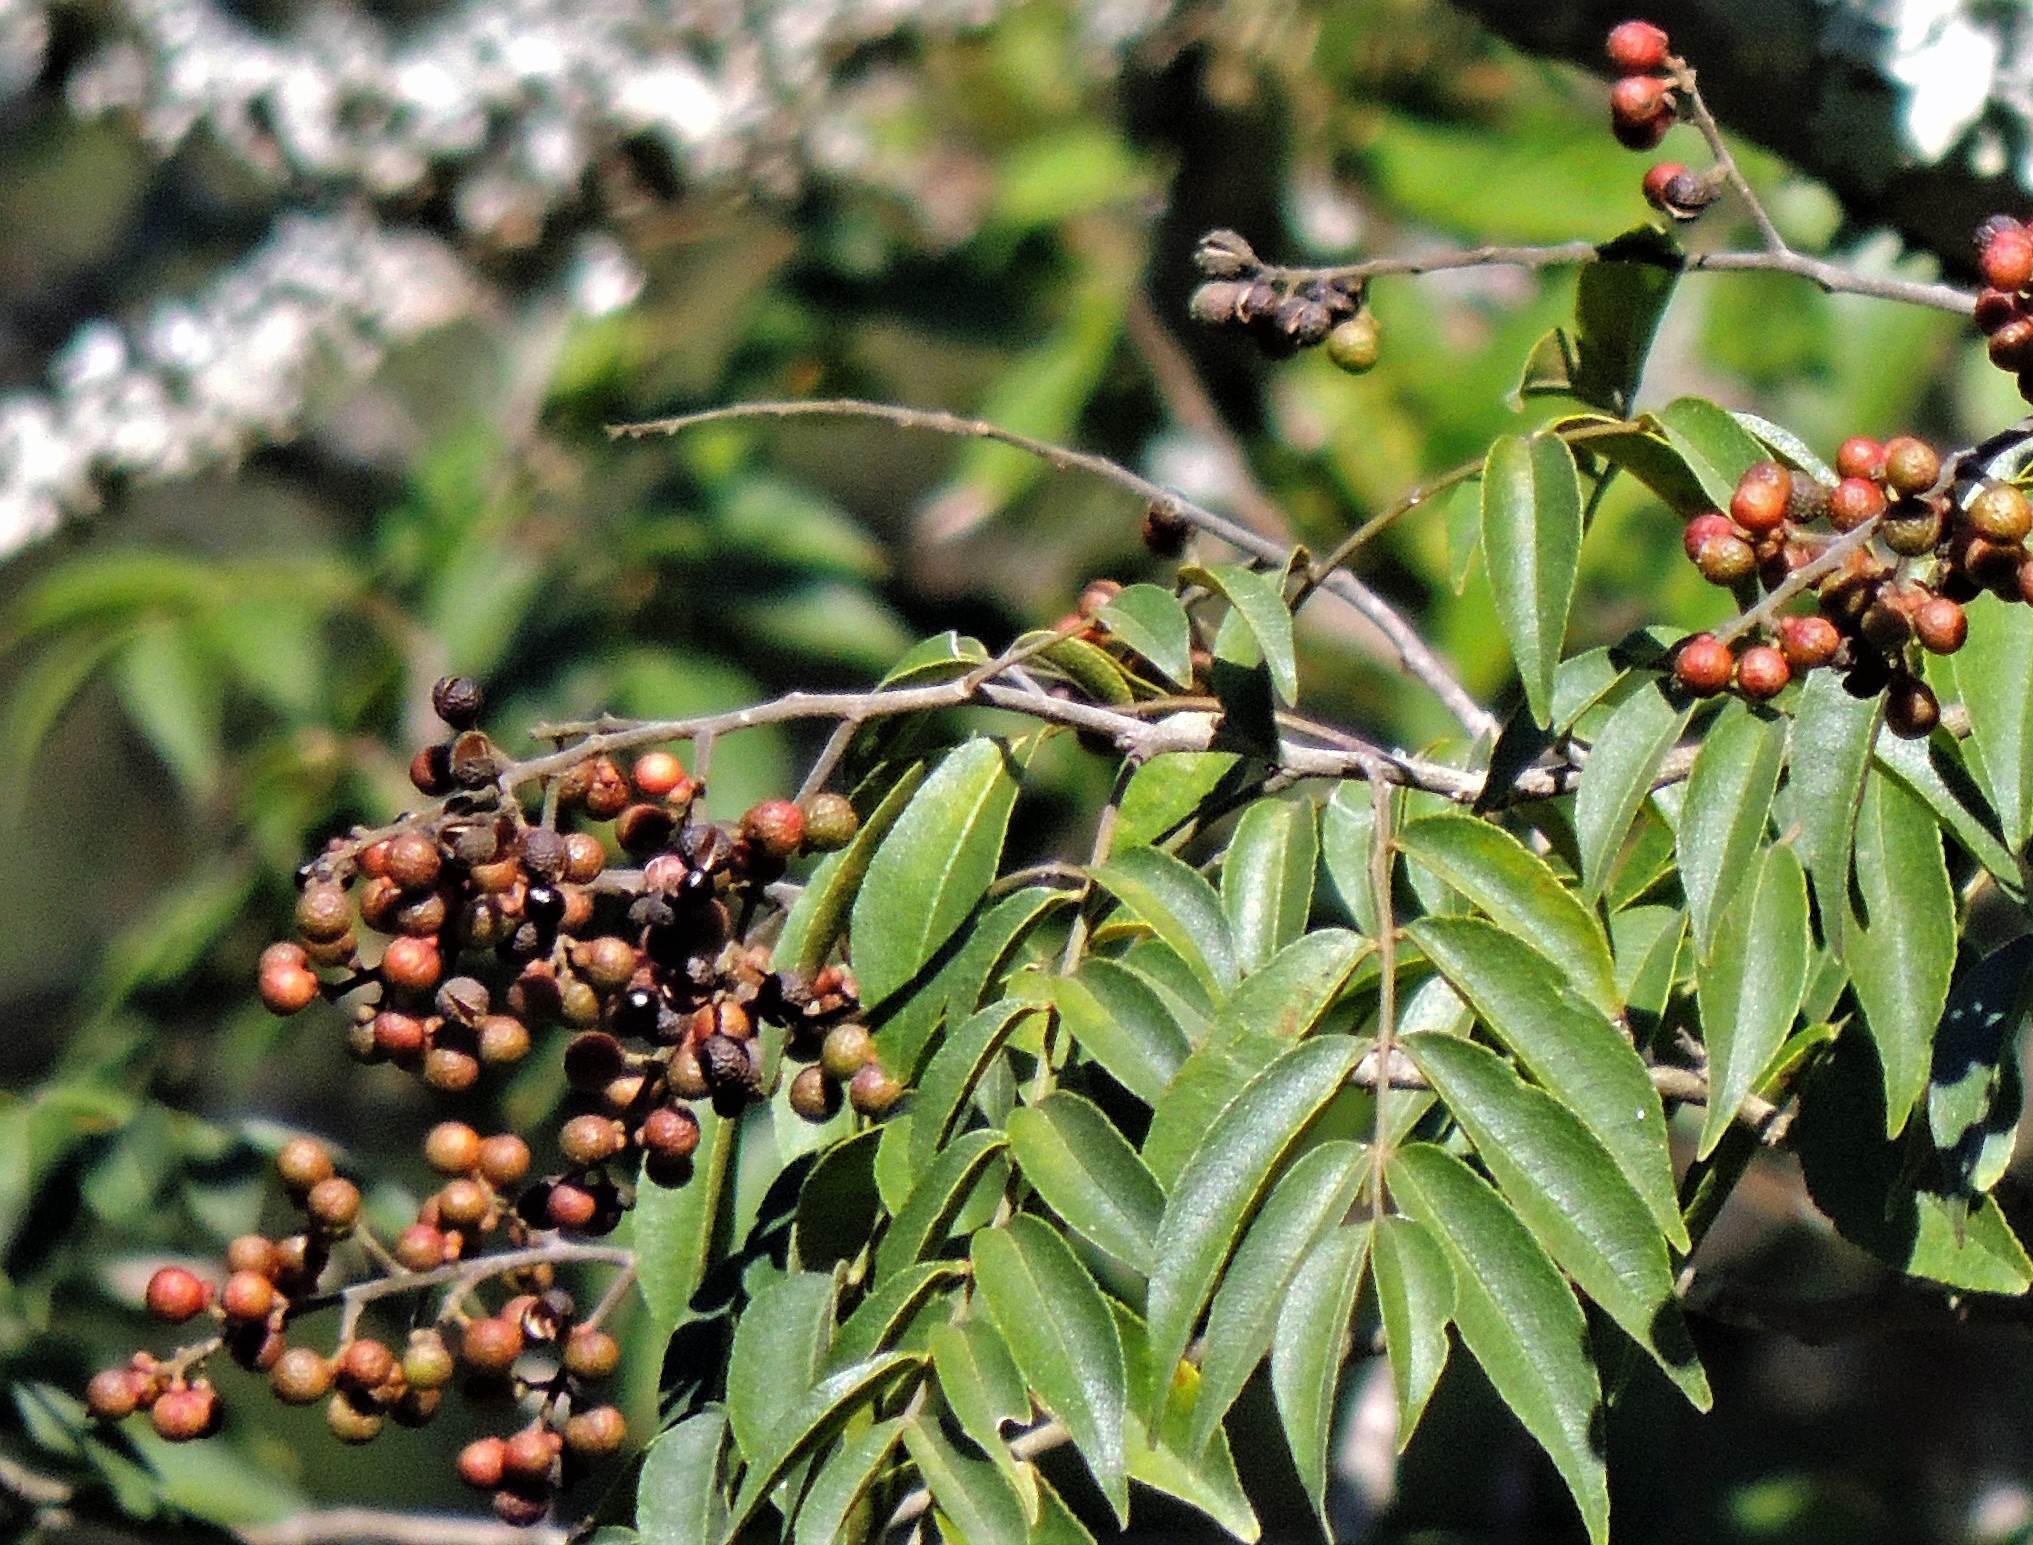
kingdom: Plantae
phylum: Tracheophyta
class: Magnoliopsida
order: Sapindales
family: Sapindaceae
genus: Sapindus
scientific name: Sapindus saponaria
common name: Wingleaf soapberry
